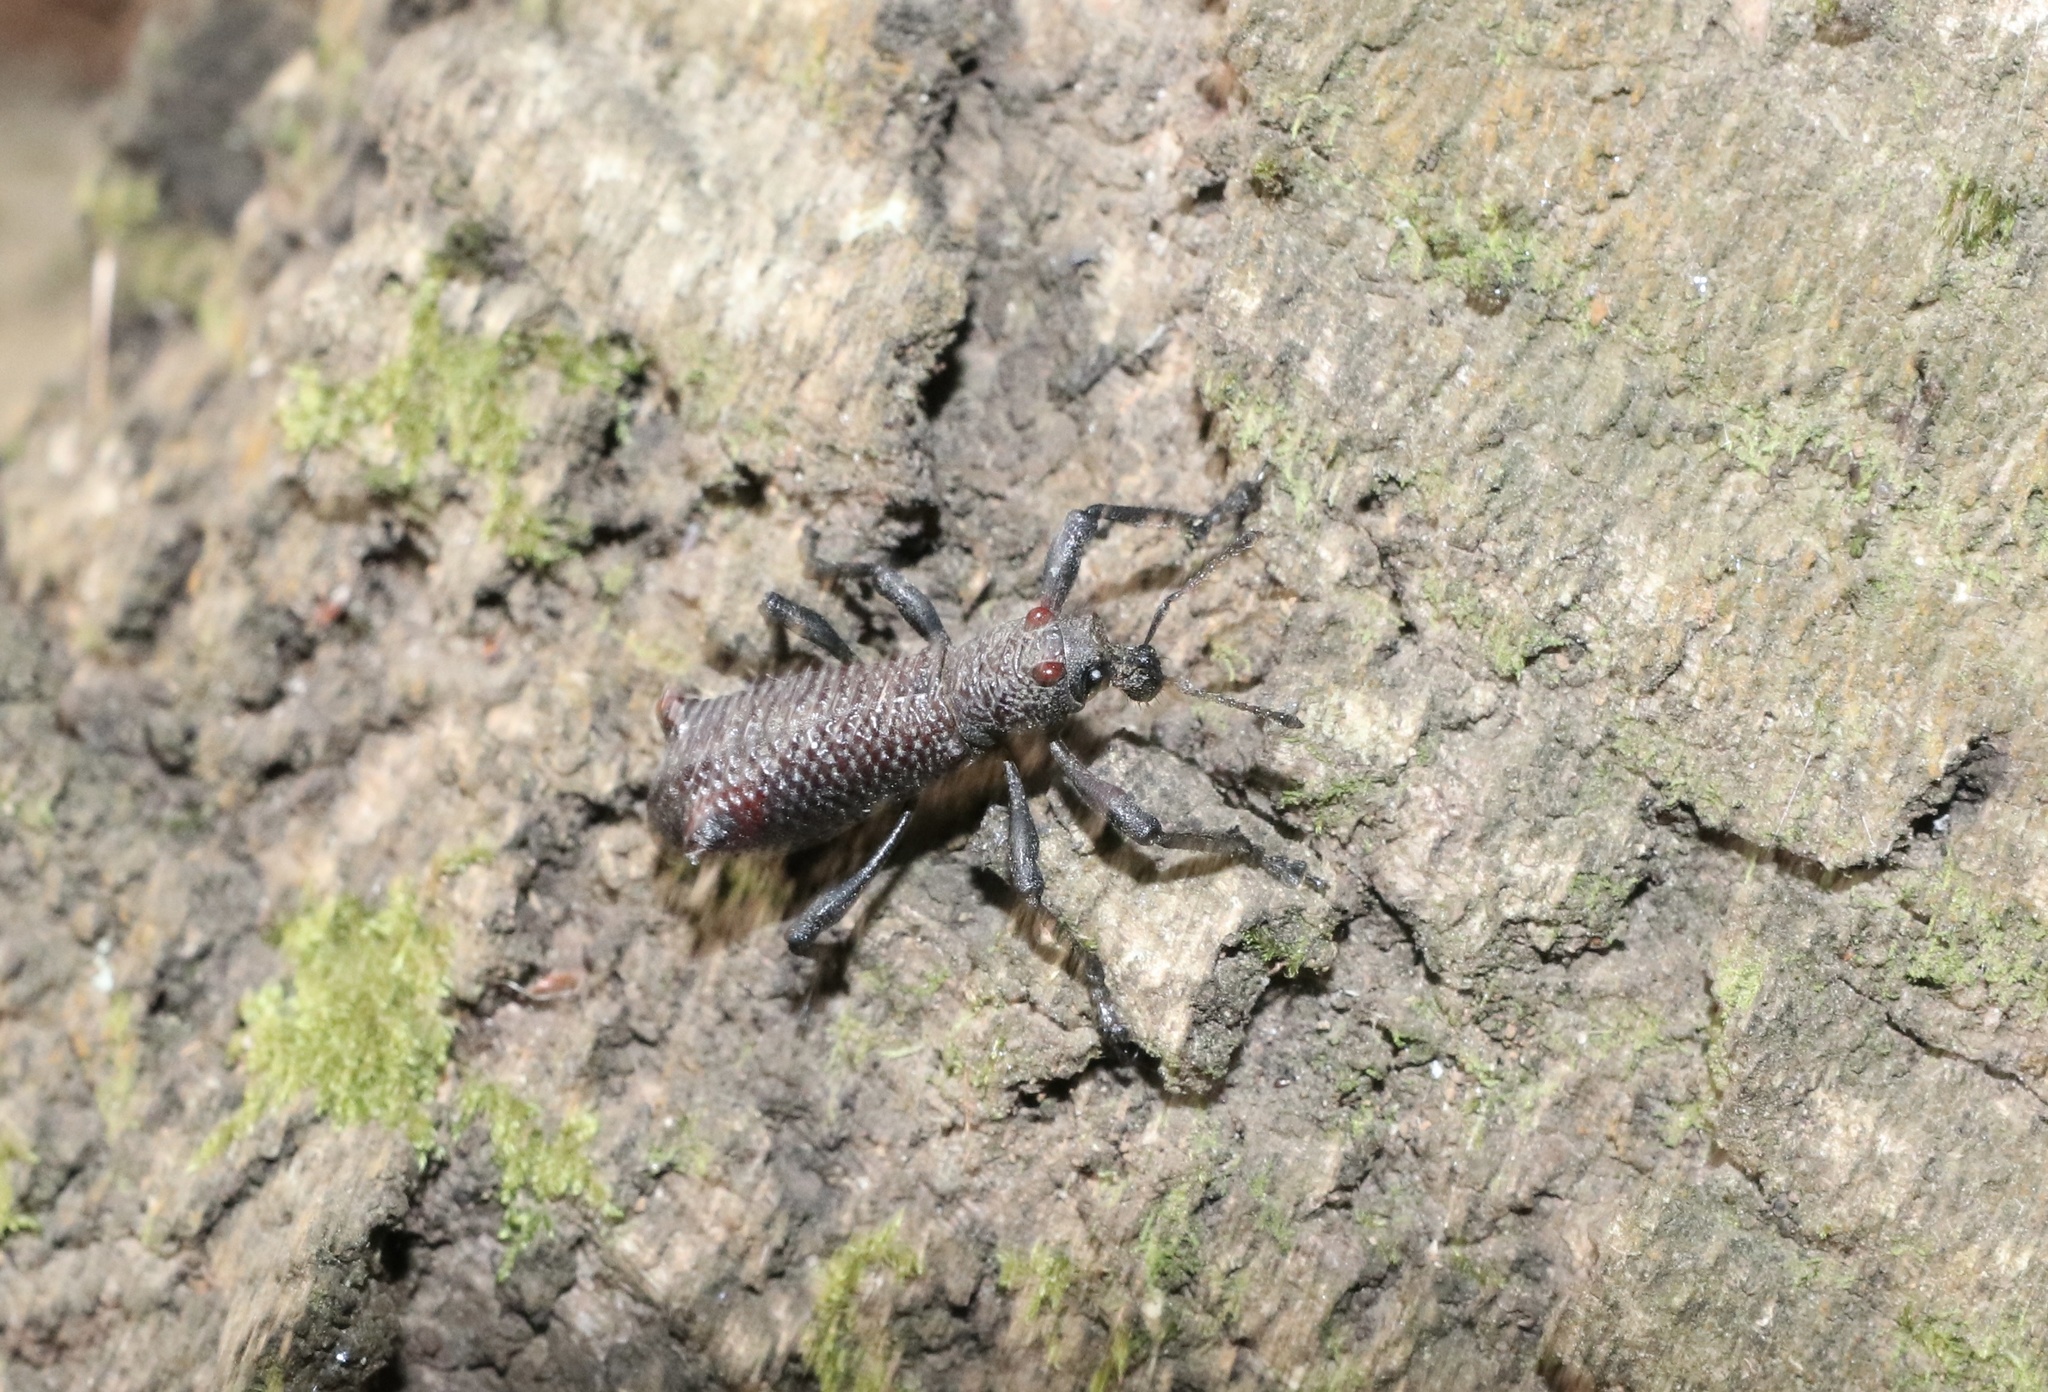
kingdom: Animalia
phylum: Arthropoda
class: Insecta
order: Coleoptera
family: Curculionidae
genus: Aegorhinus
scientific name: Aegorhinus bulbifer
